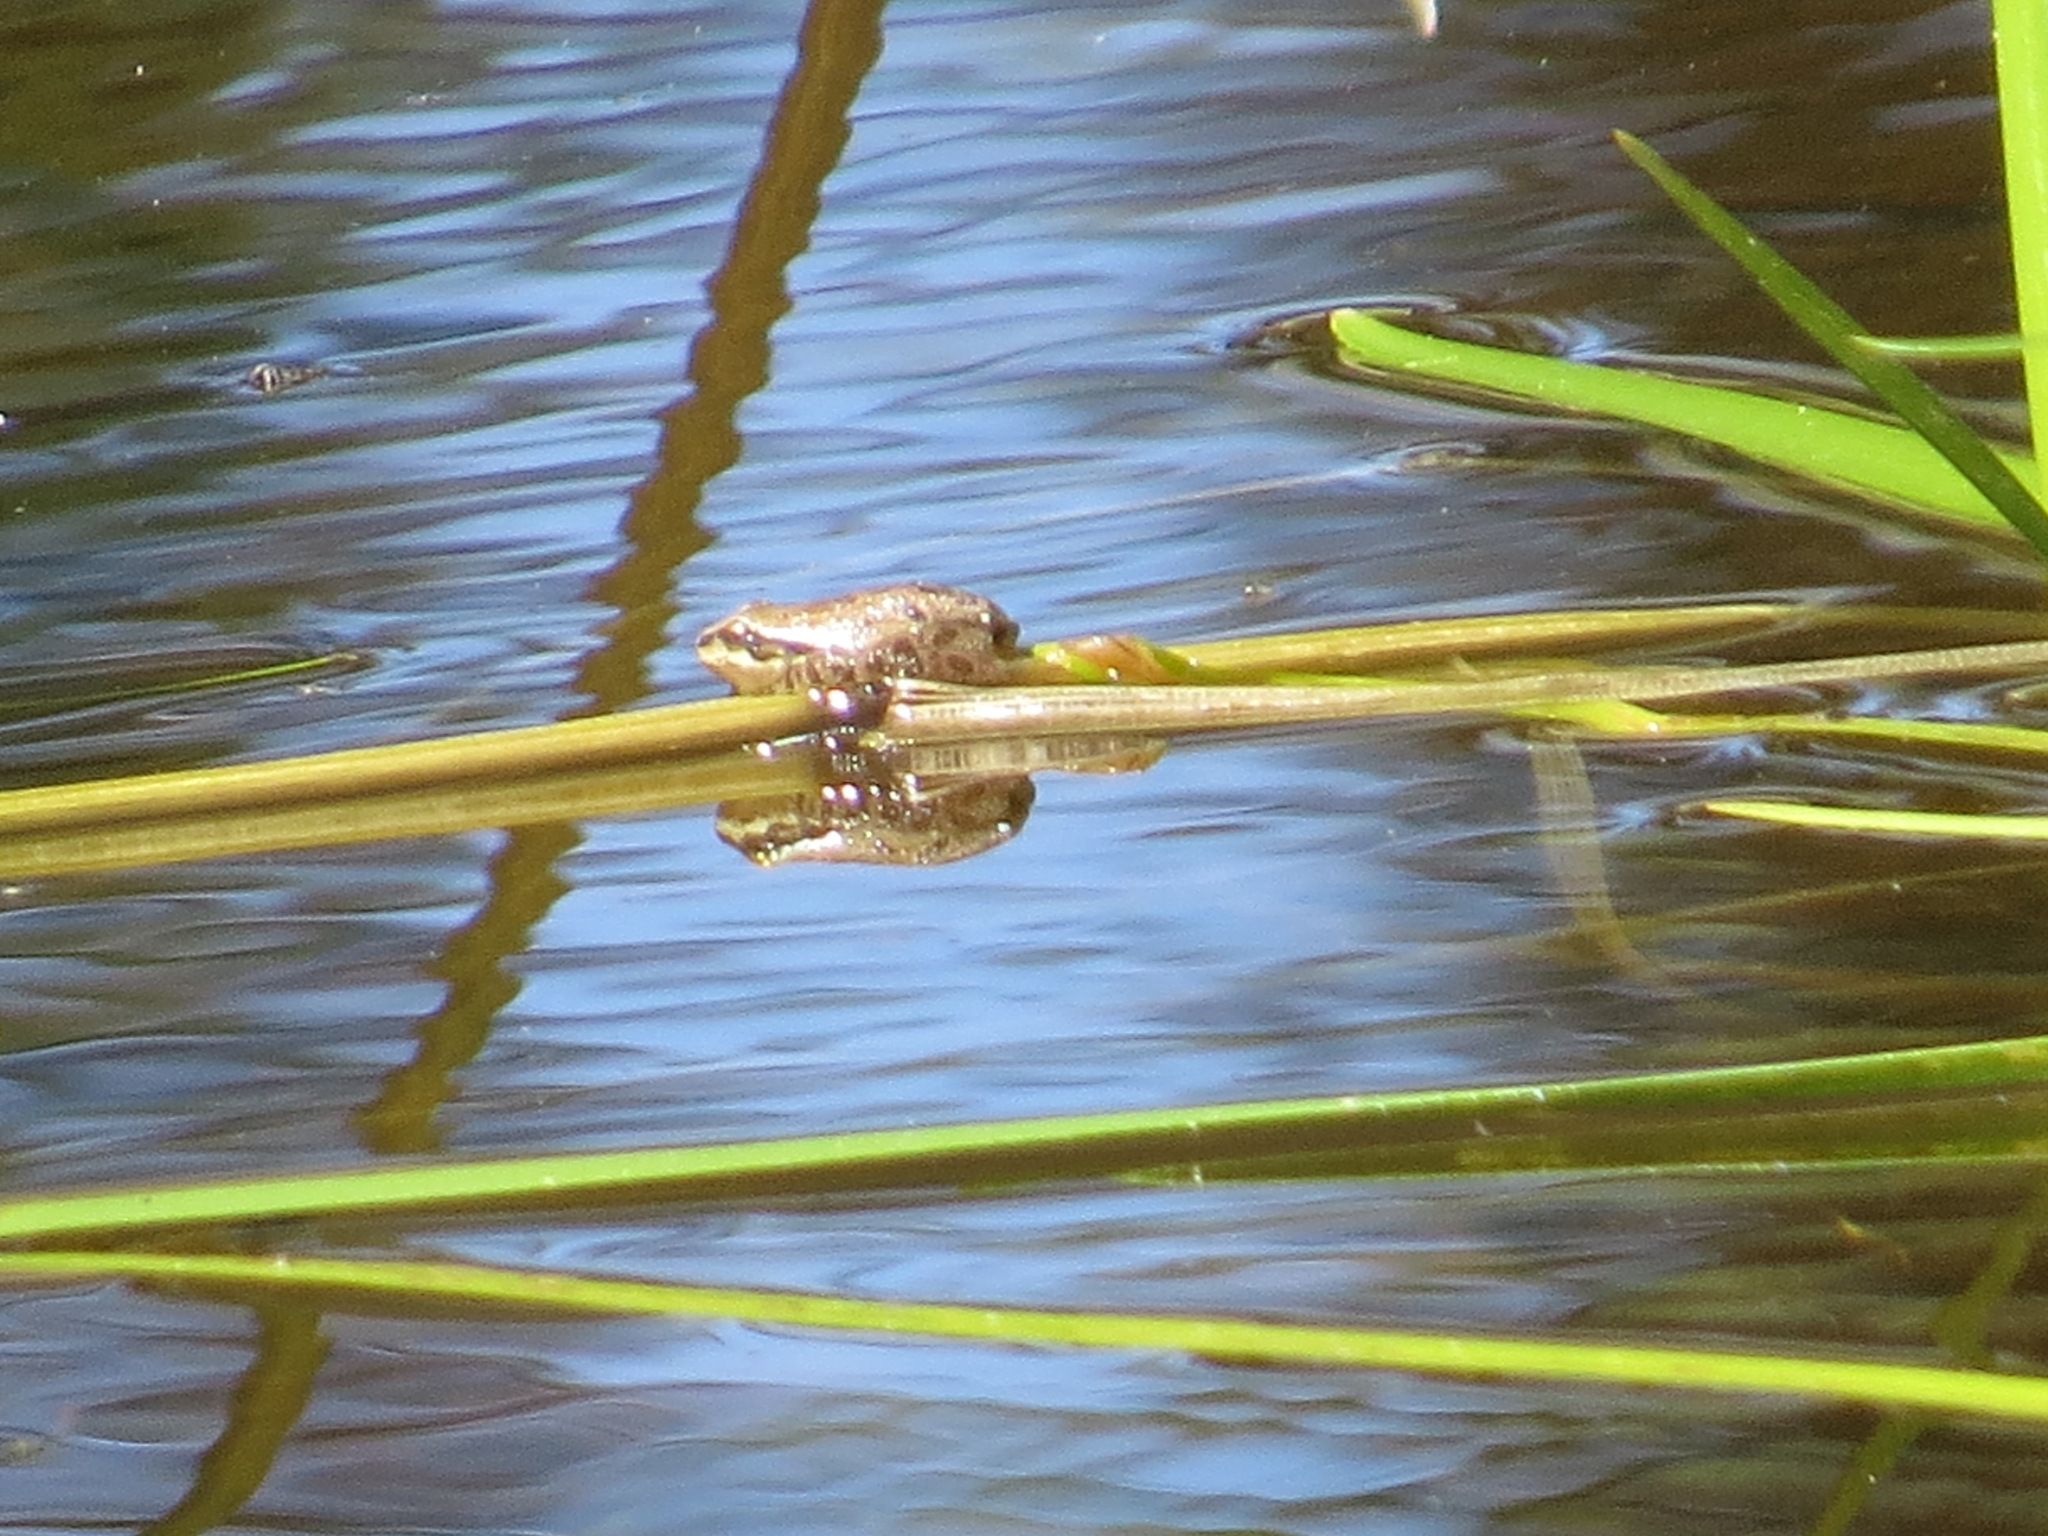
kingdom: Animalia
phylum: Chordata
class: Amphibia
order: Anura
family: Hylidae
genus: Pseudacris
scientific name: Pseudacris regilla
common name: Pacific chorus frog
